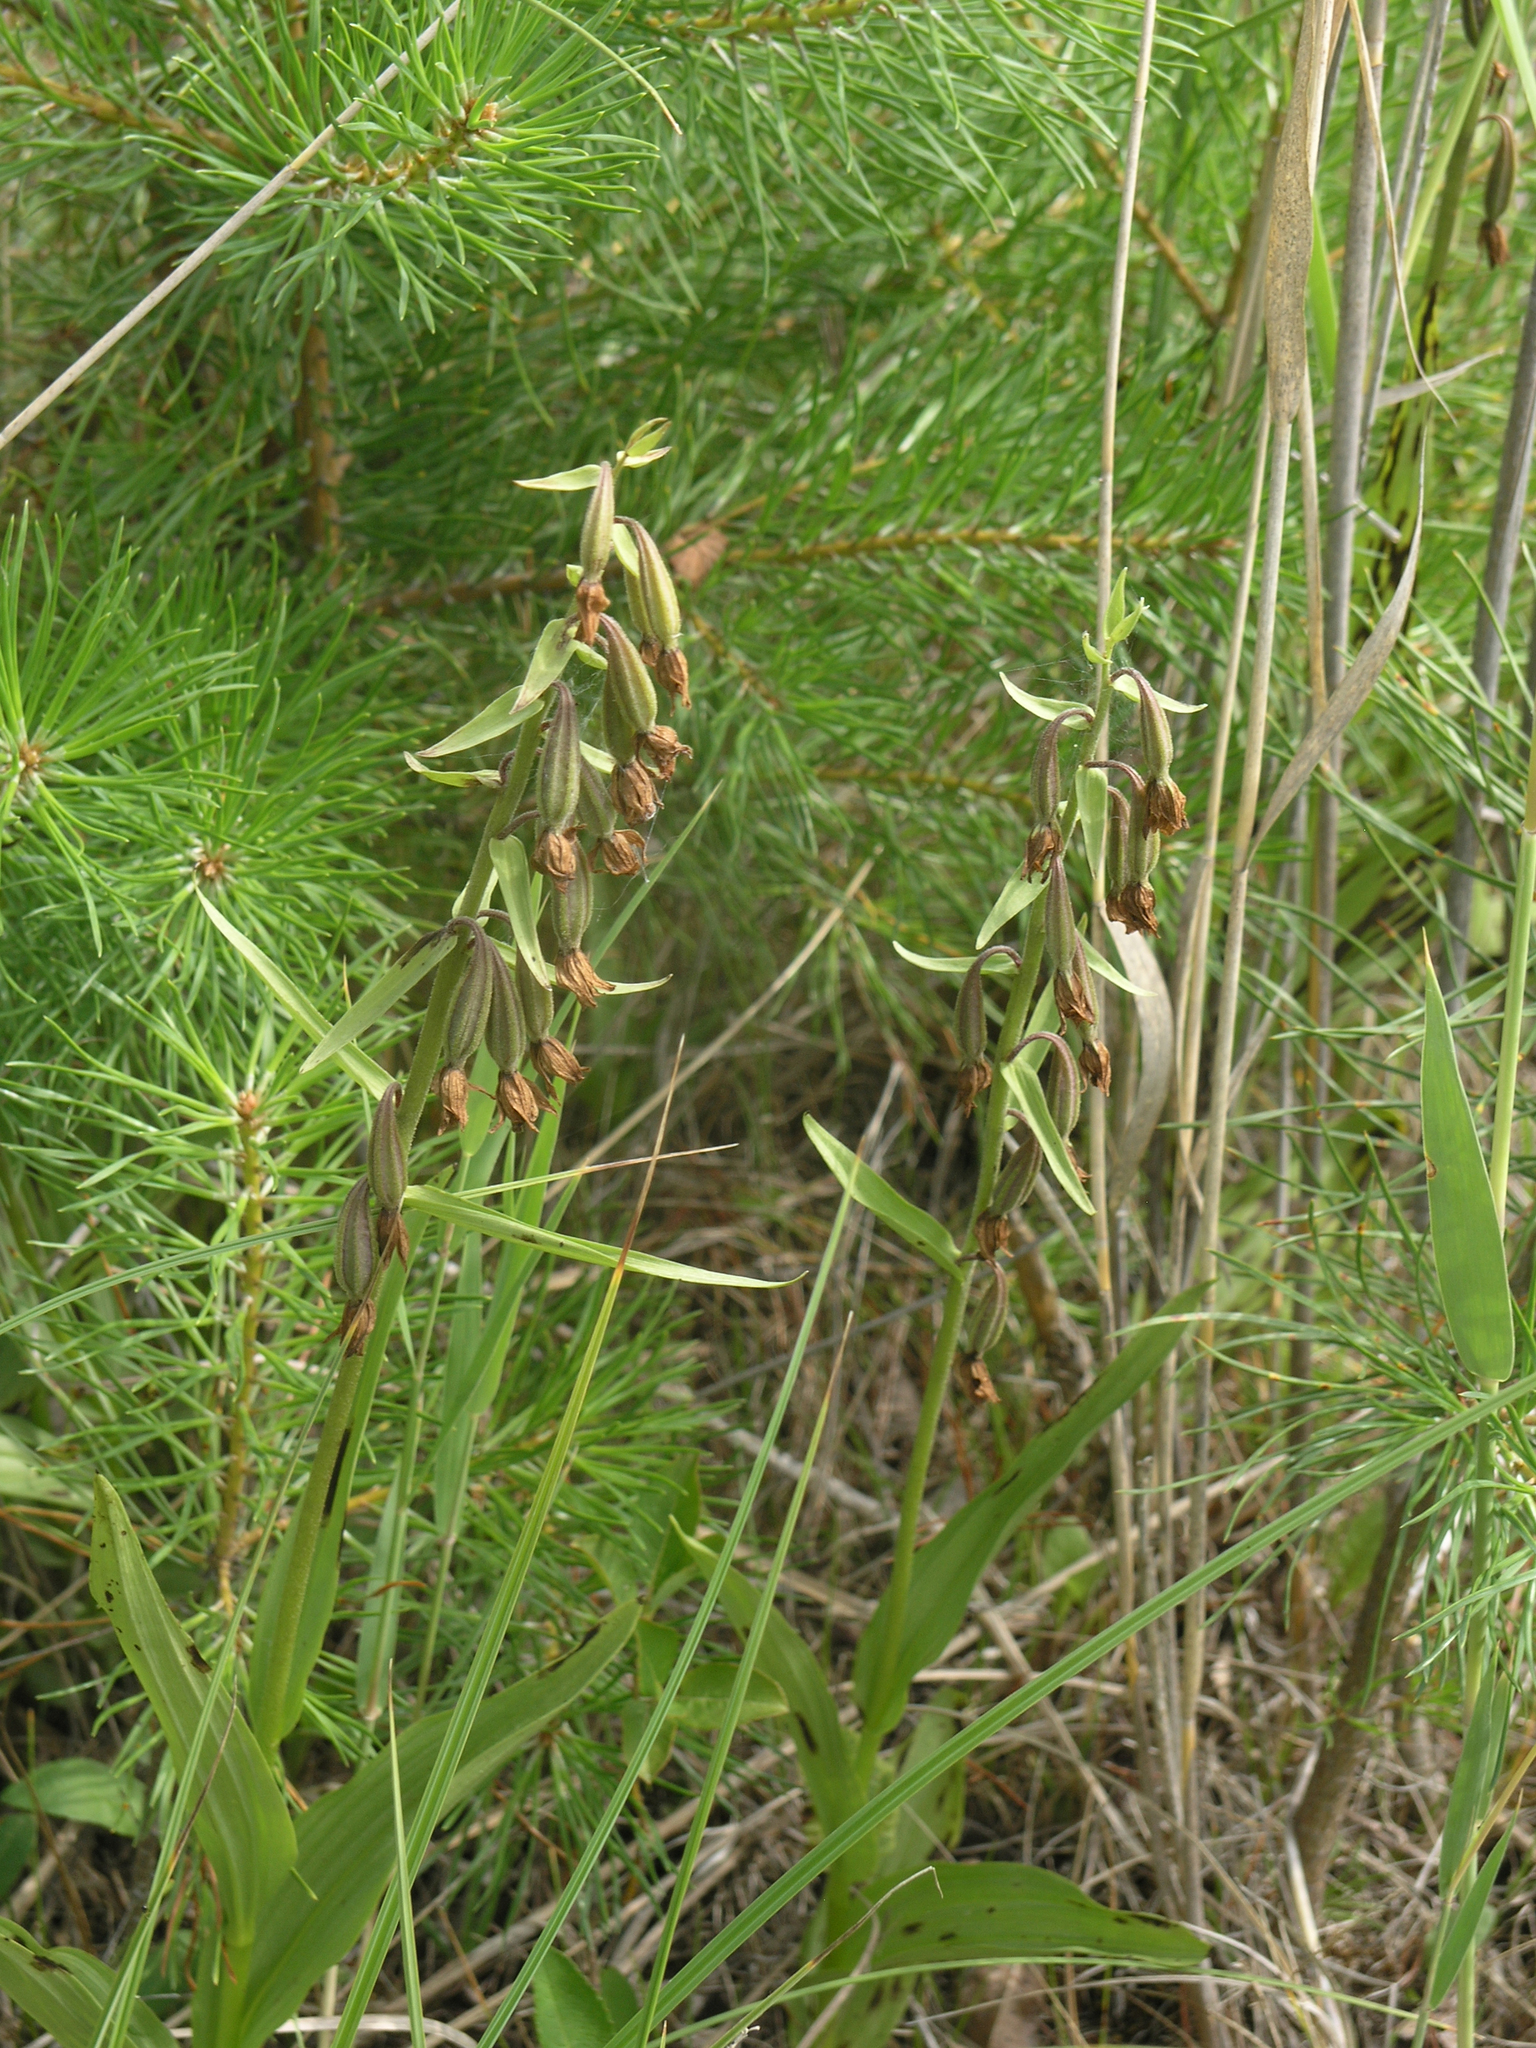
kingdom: Plantae
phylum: Tracheophyta
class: Liliopsida
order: Asparagales
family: Orchidaceae
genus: Epipactis
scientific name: Epipactis palustris
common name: Marsh helleborine
